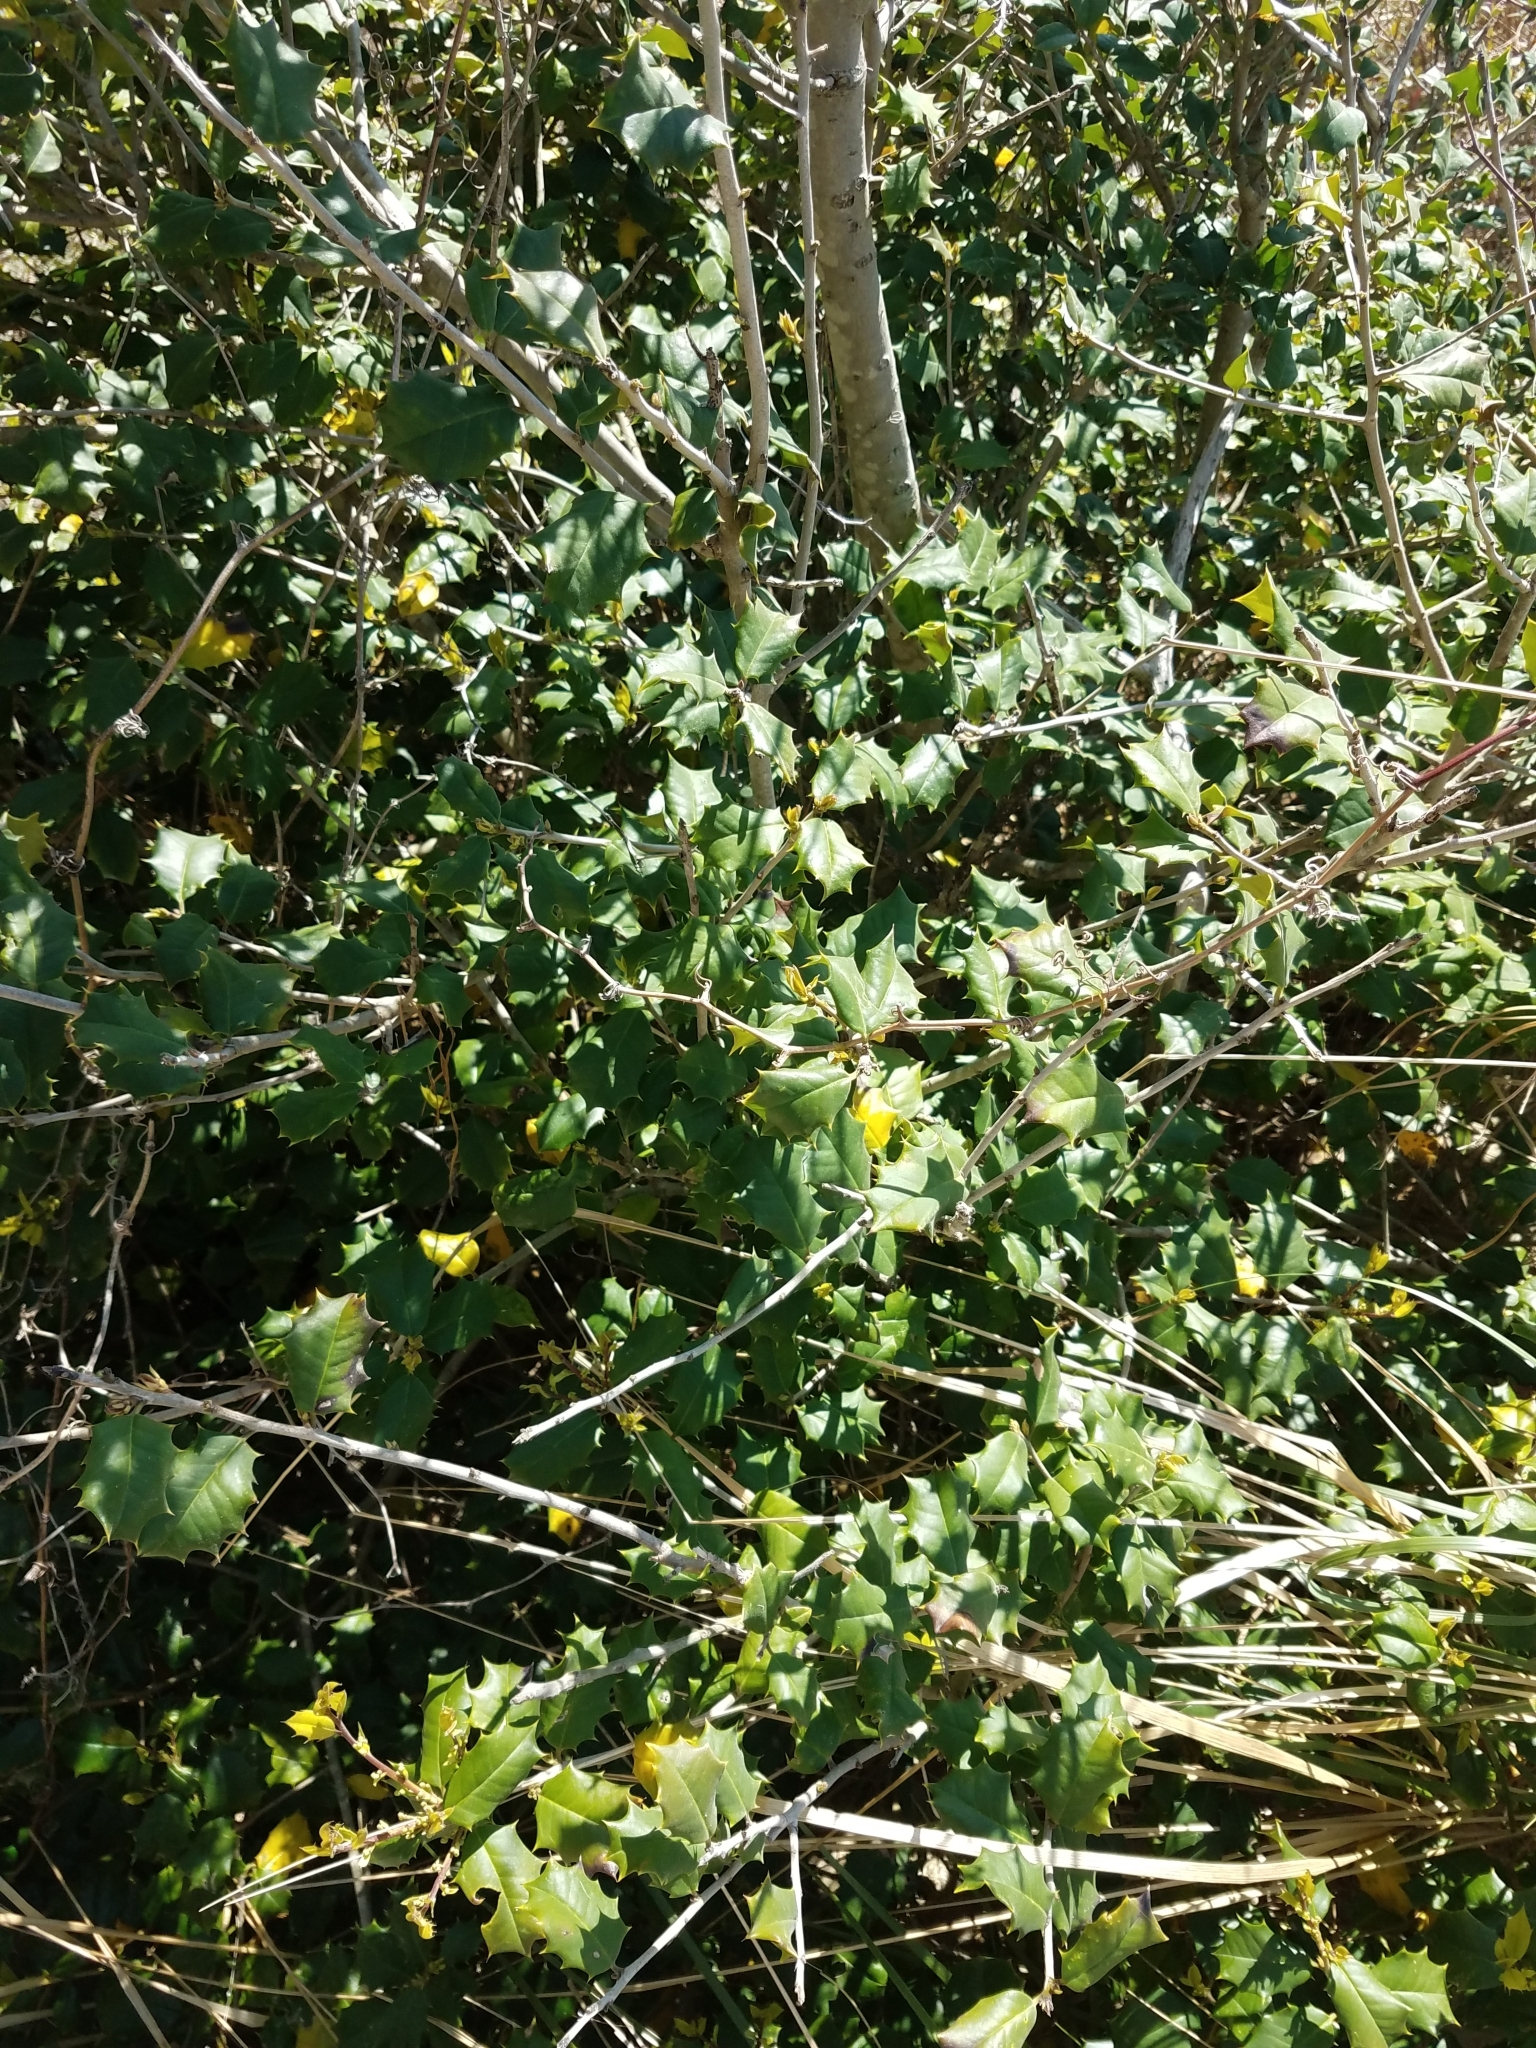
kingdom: Plantae
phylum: Tracheophyta
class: Magnoliopsida
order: Aquifoliales
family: Aquifoliaceae
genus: Ilex
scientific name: Ilex opaca
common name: American holly
